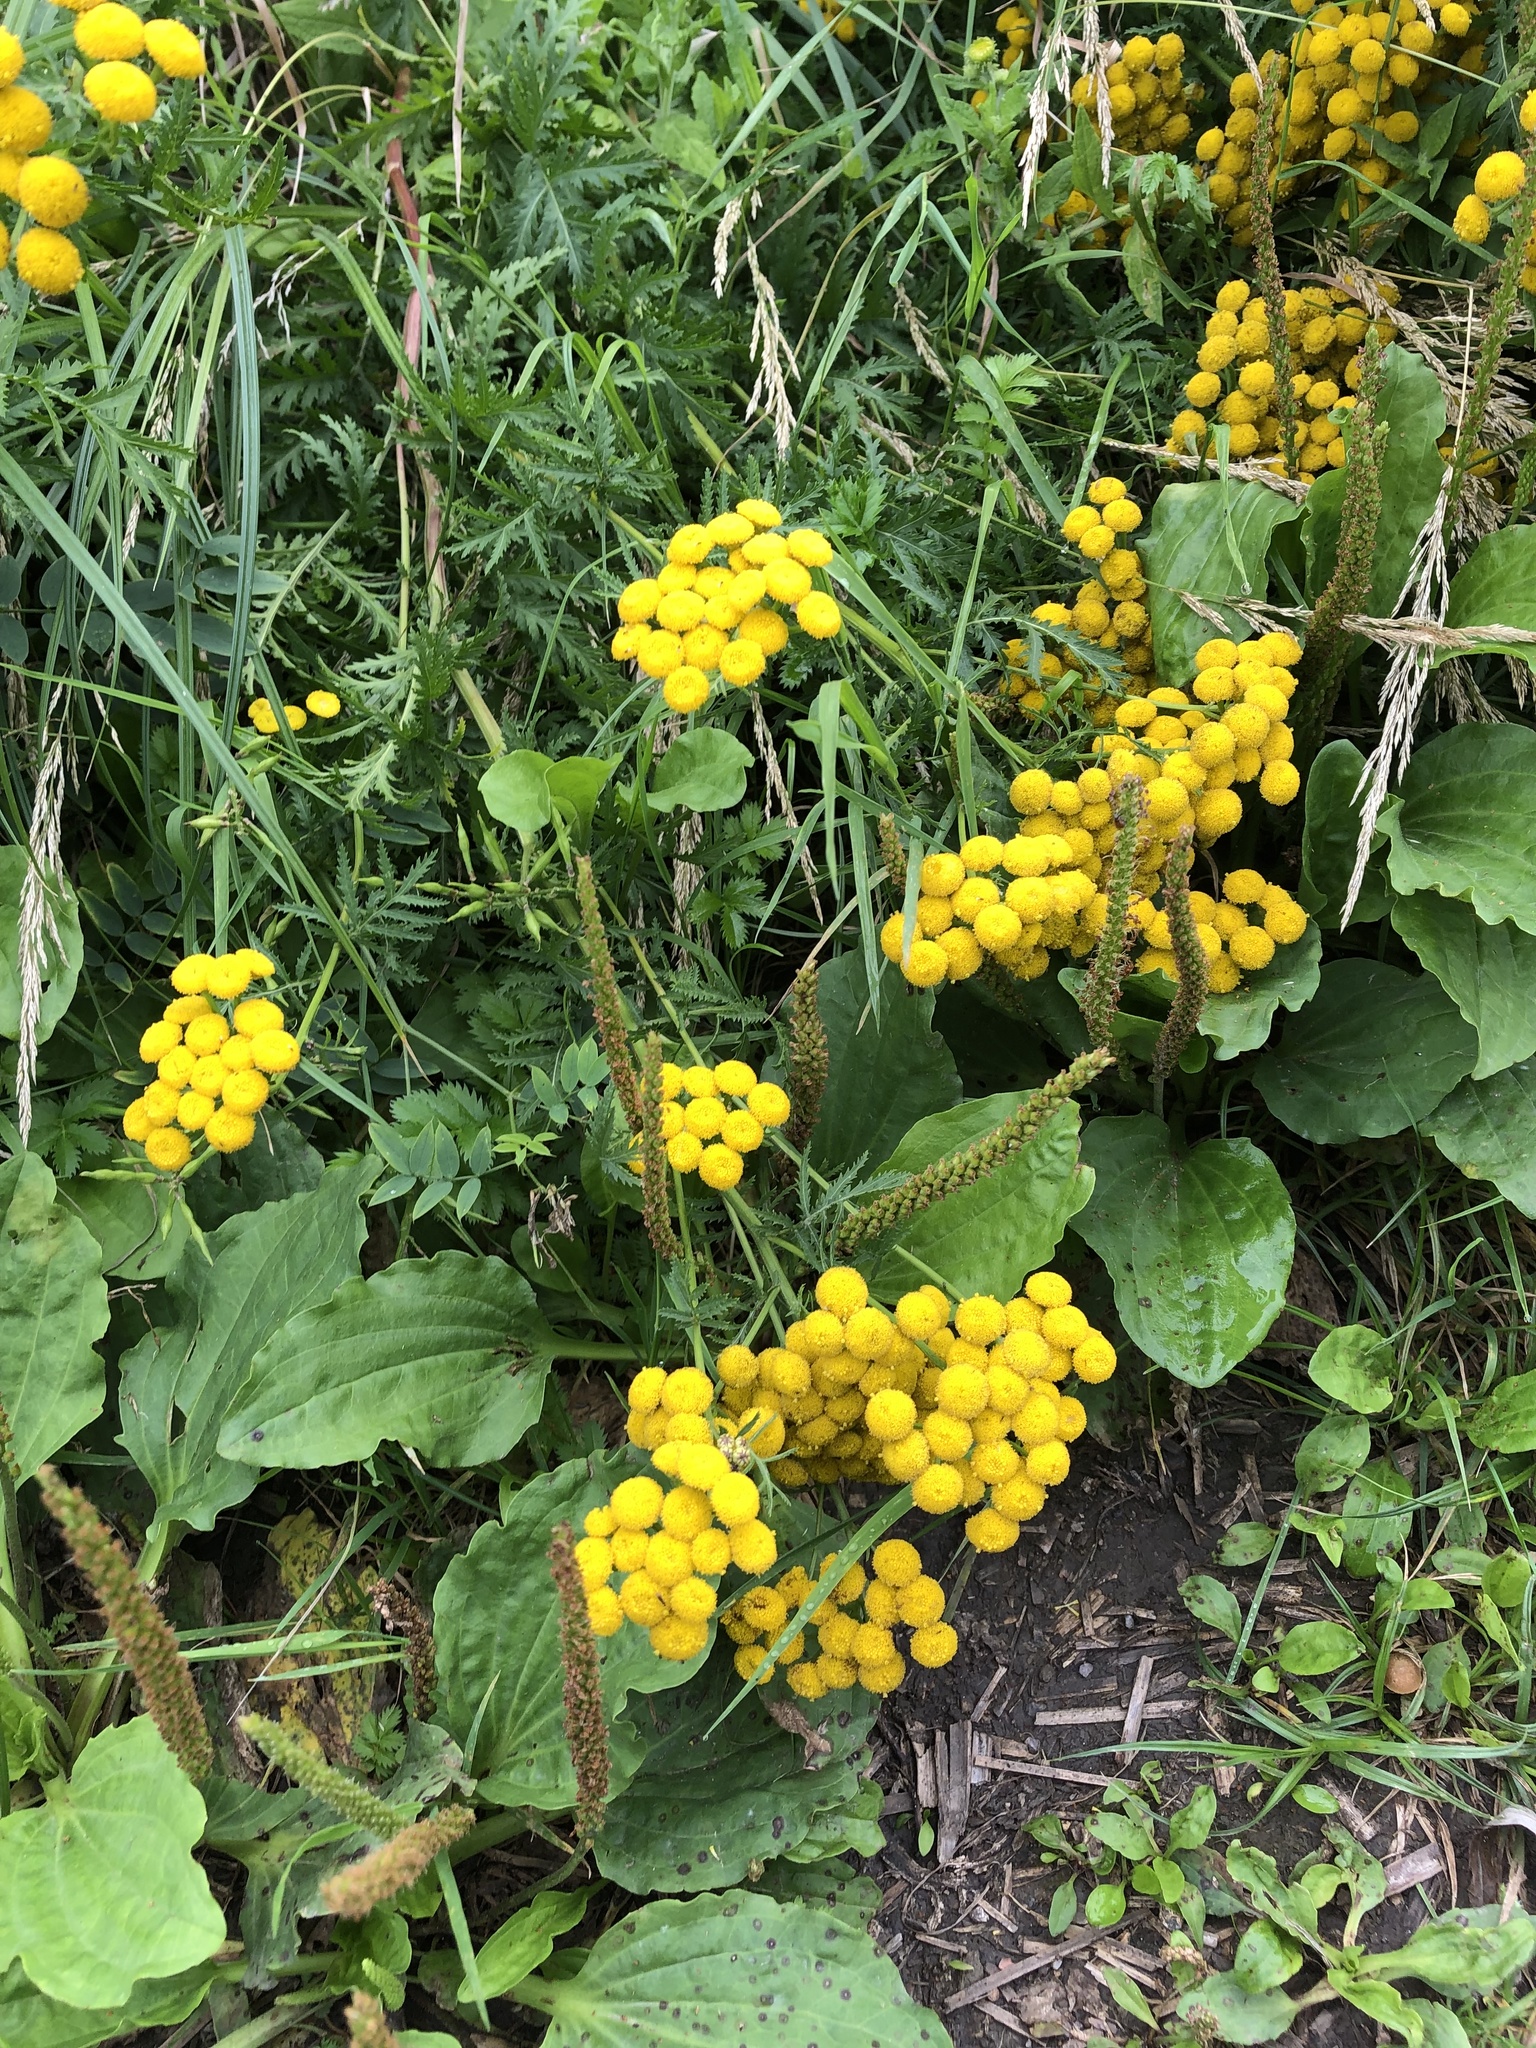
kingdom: Plantae
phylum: Tracheophyta
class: Magnoliopsida
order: Asterales
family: Asteraceae
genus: Tanacetum
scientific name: Tanacetum vulgare
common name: Common tansy
